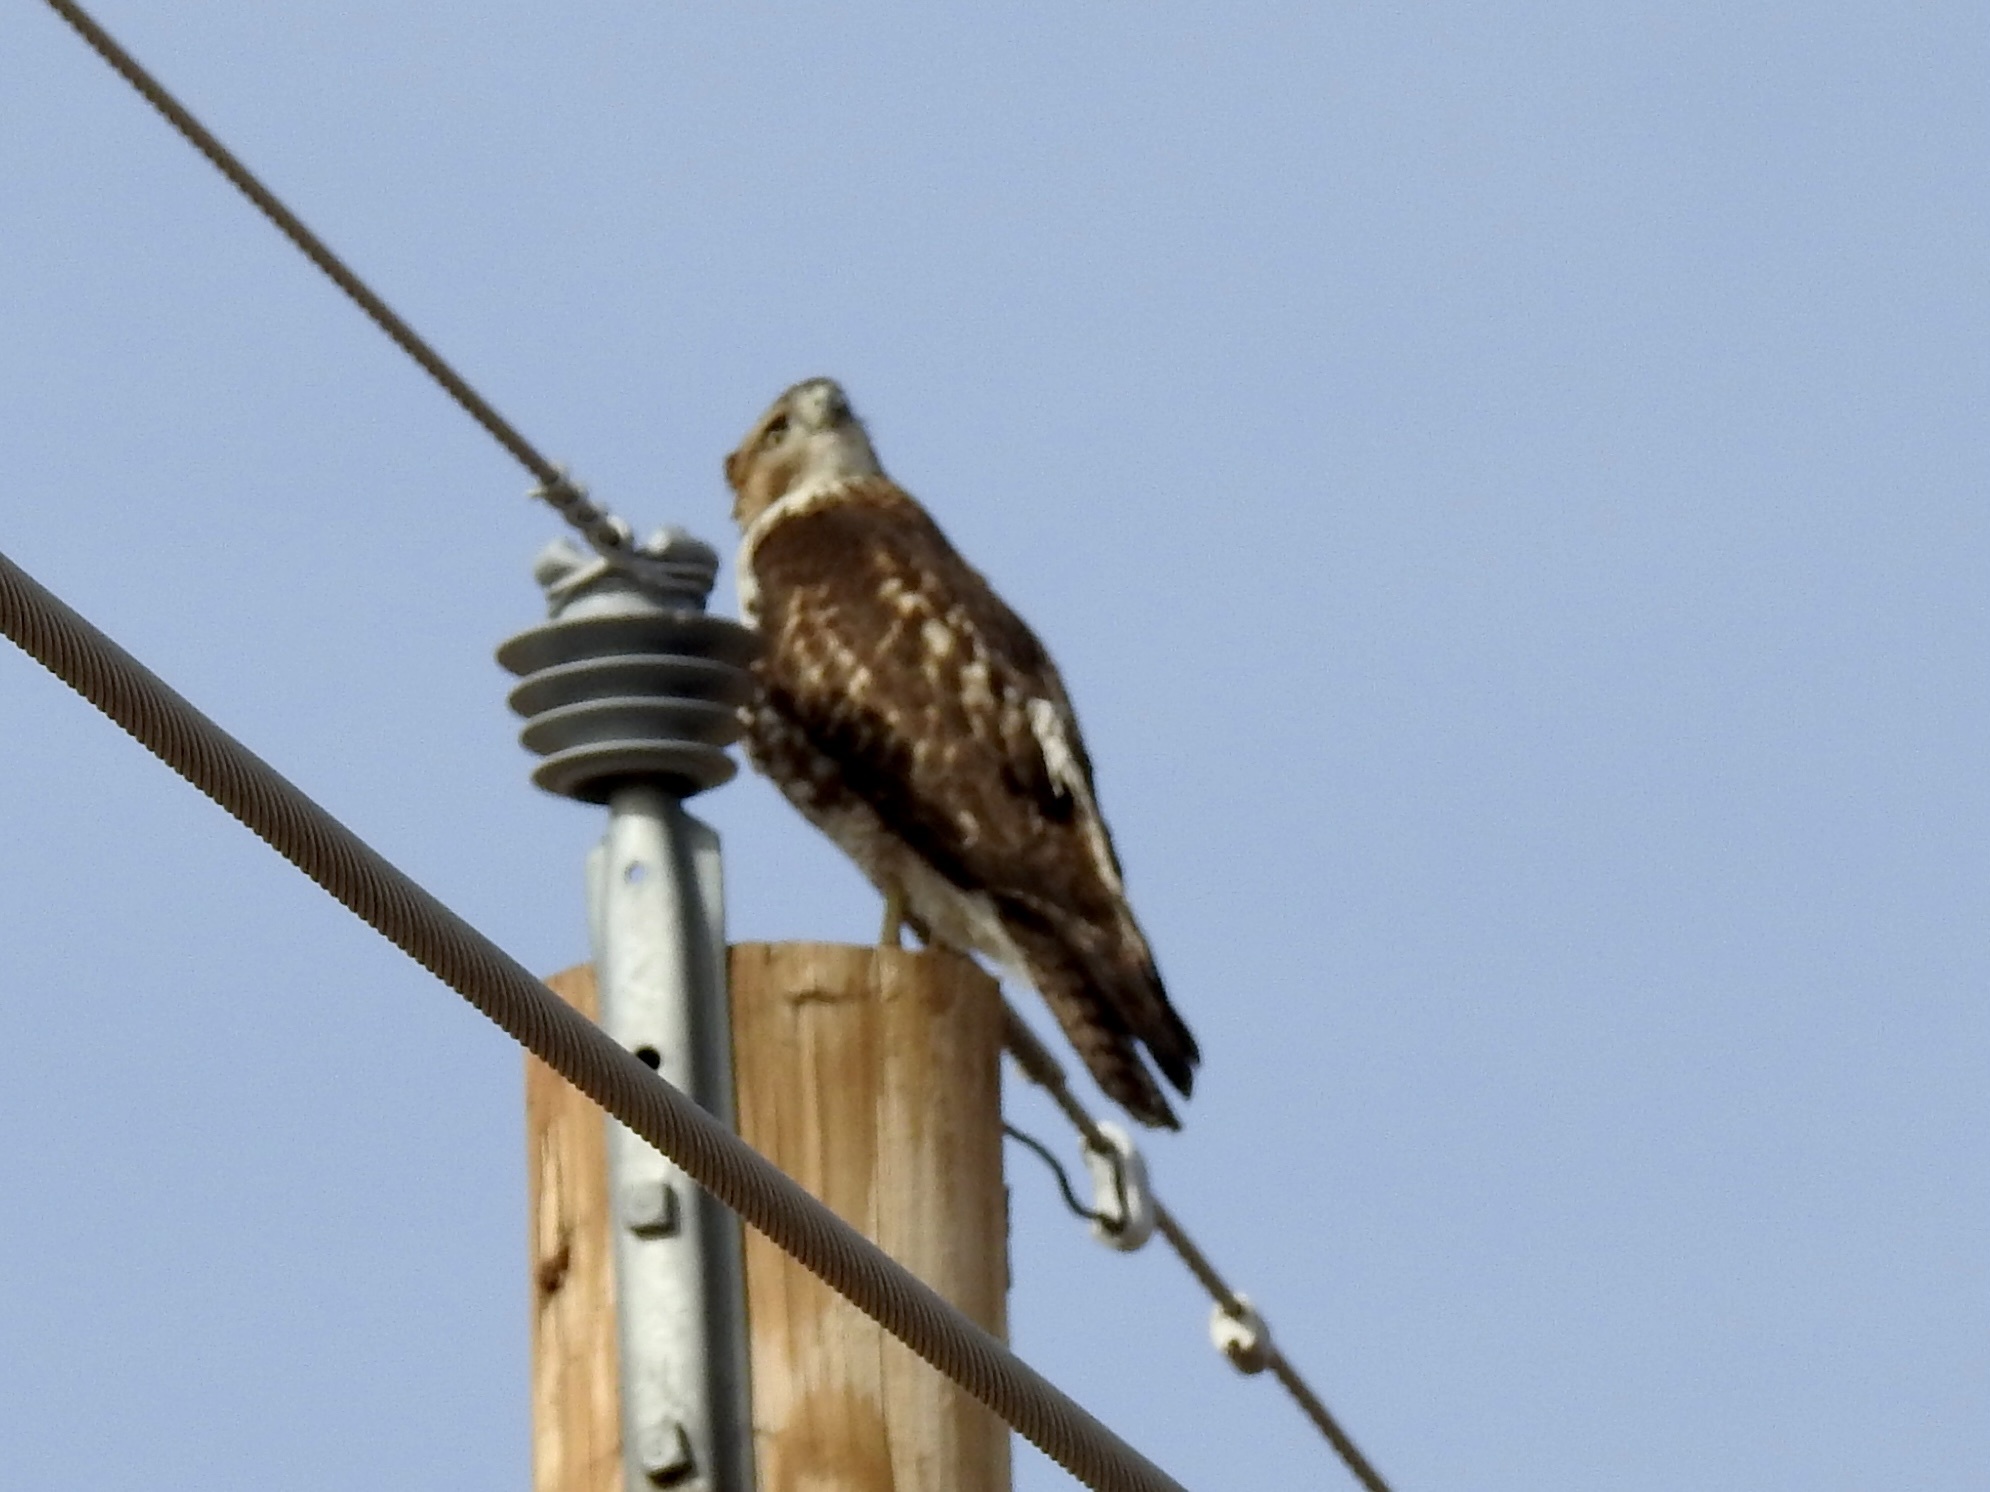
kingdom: Animalia
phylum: Chordata
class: Aves
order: Accipitriformes
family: Accipitridae
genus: Buteo
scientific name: Buteo jamaicensis
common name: Red-tailed hawk
